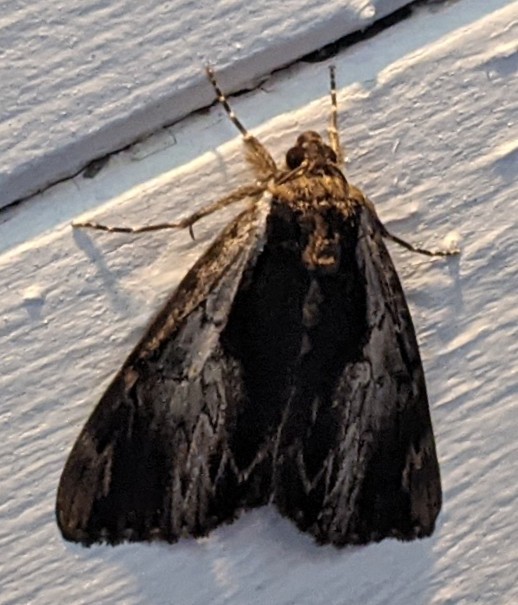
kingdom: Animalia
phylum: Arthropoda
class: Insecta
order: Lepidoptera
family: Erebidae
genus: Catocala
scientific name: Catocala ultronia
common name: Ultronia underwing
